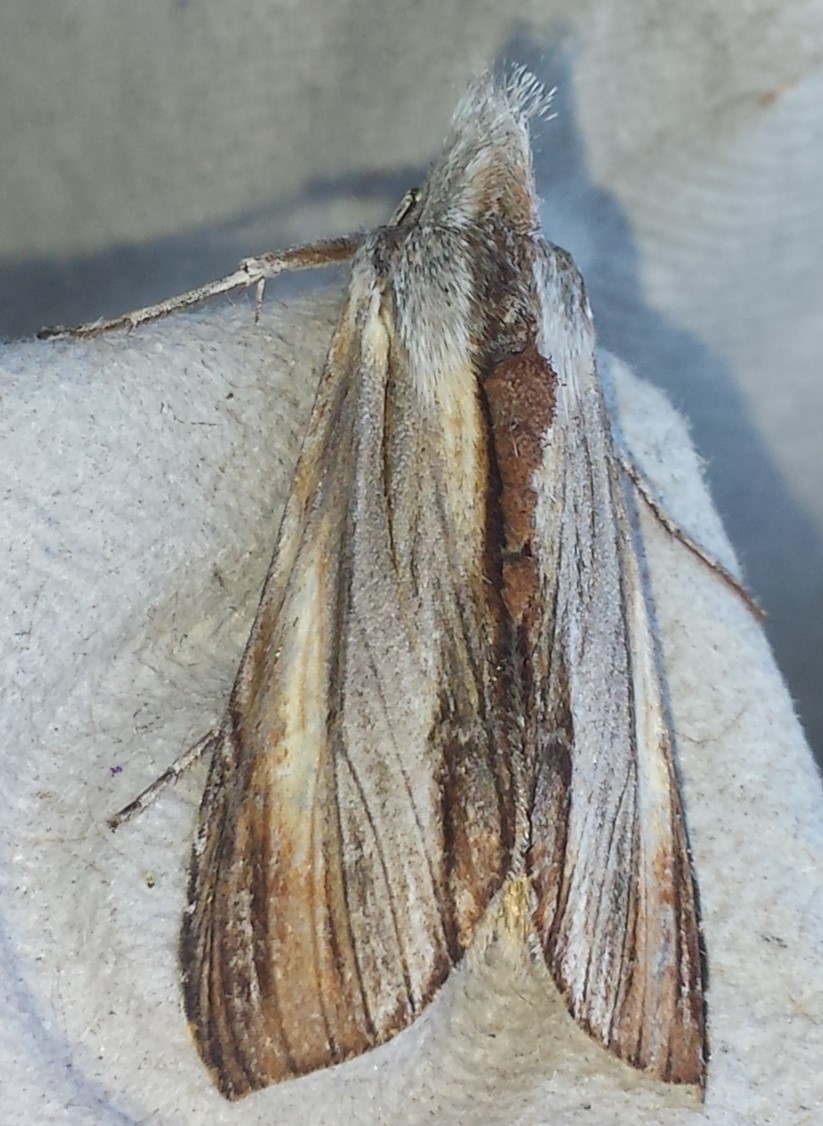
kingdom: Animalia
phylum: Arthropoda
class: Insecta
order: Lepidoptera
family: Noctuidae
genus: Cucullia
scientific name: Cucullia convexipennis
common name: Brown-hooded owlet
